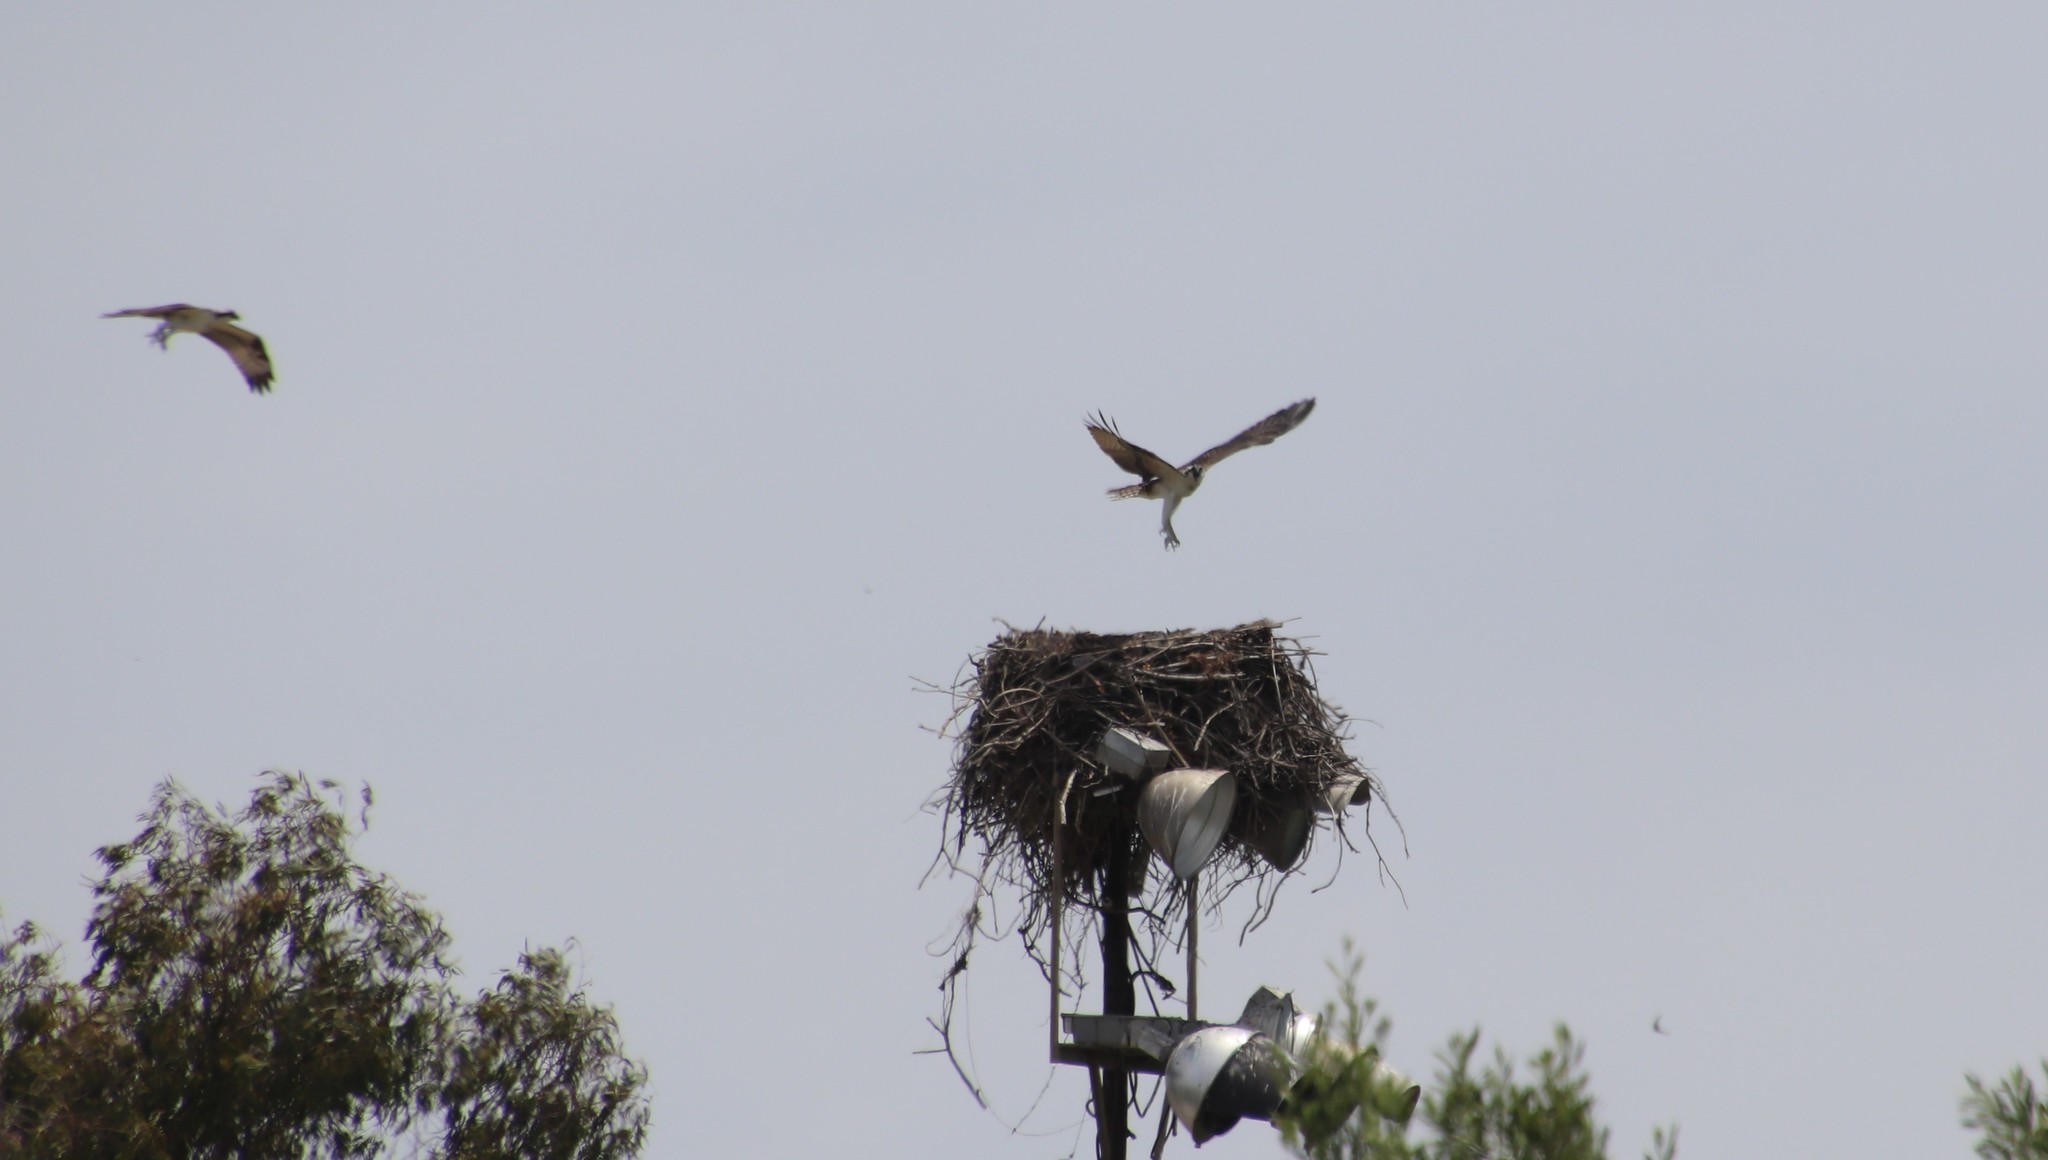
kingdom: Animalia
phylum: Chordata
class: Aves
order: Accipitriformes
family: Pandionidae
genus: Pandion
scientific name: Pandion haliaetus
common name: Osprey
